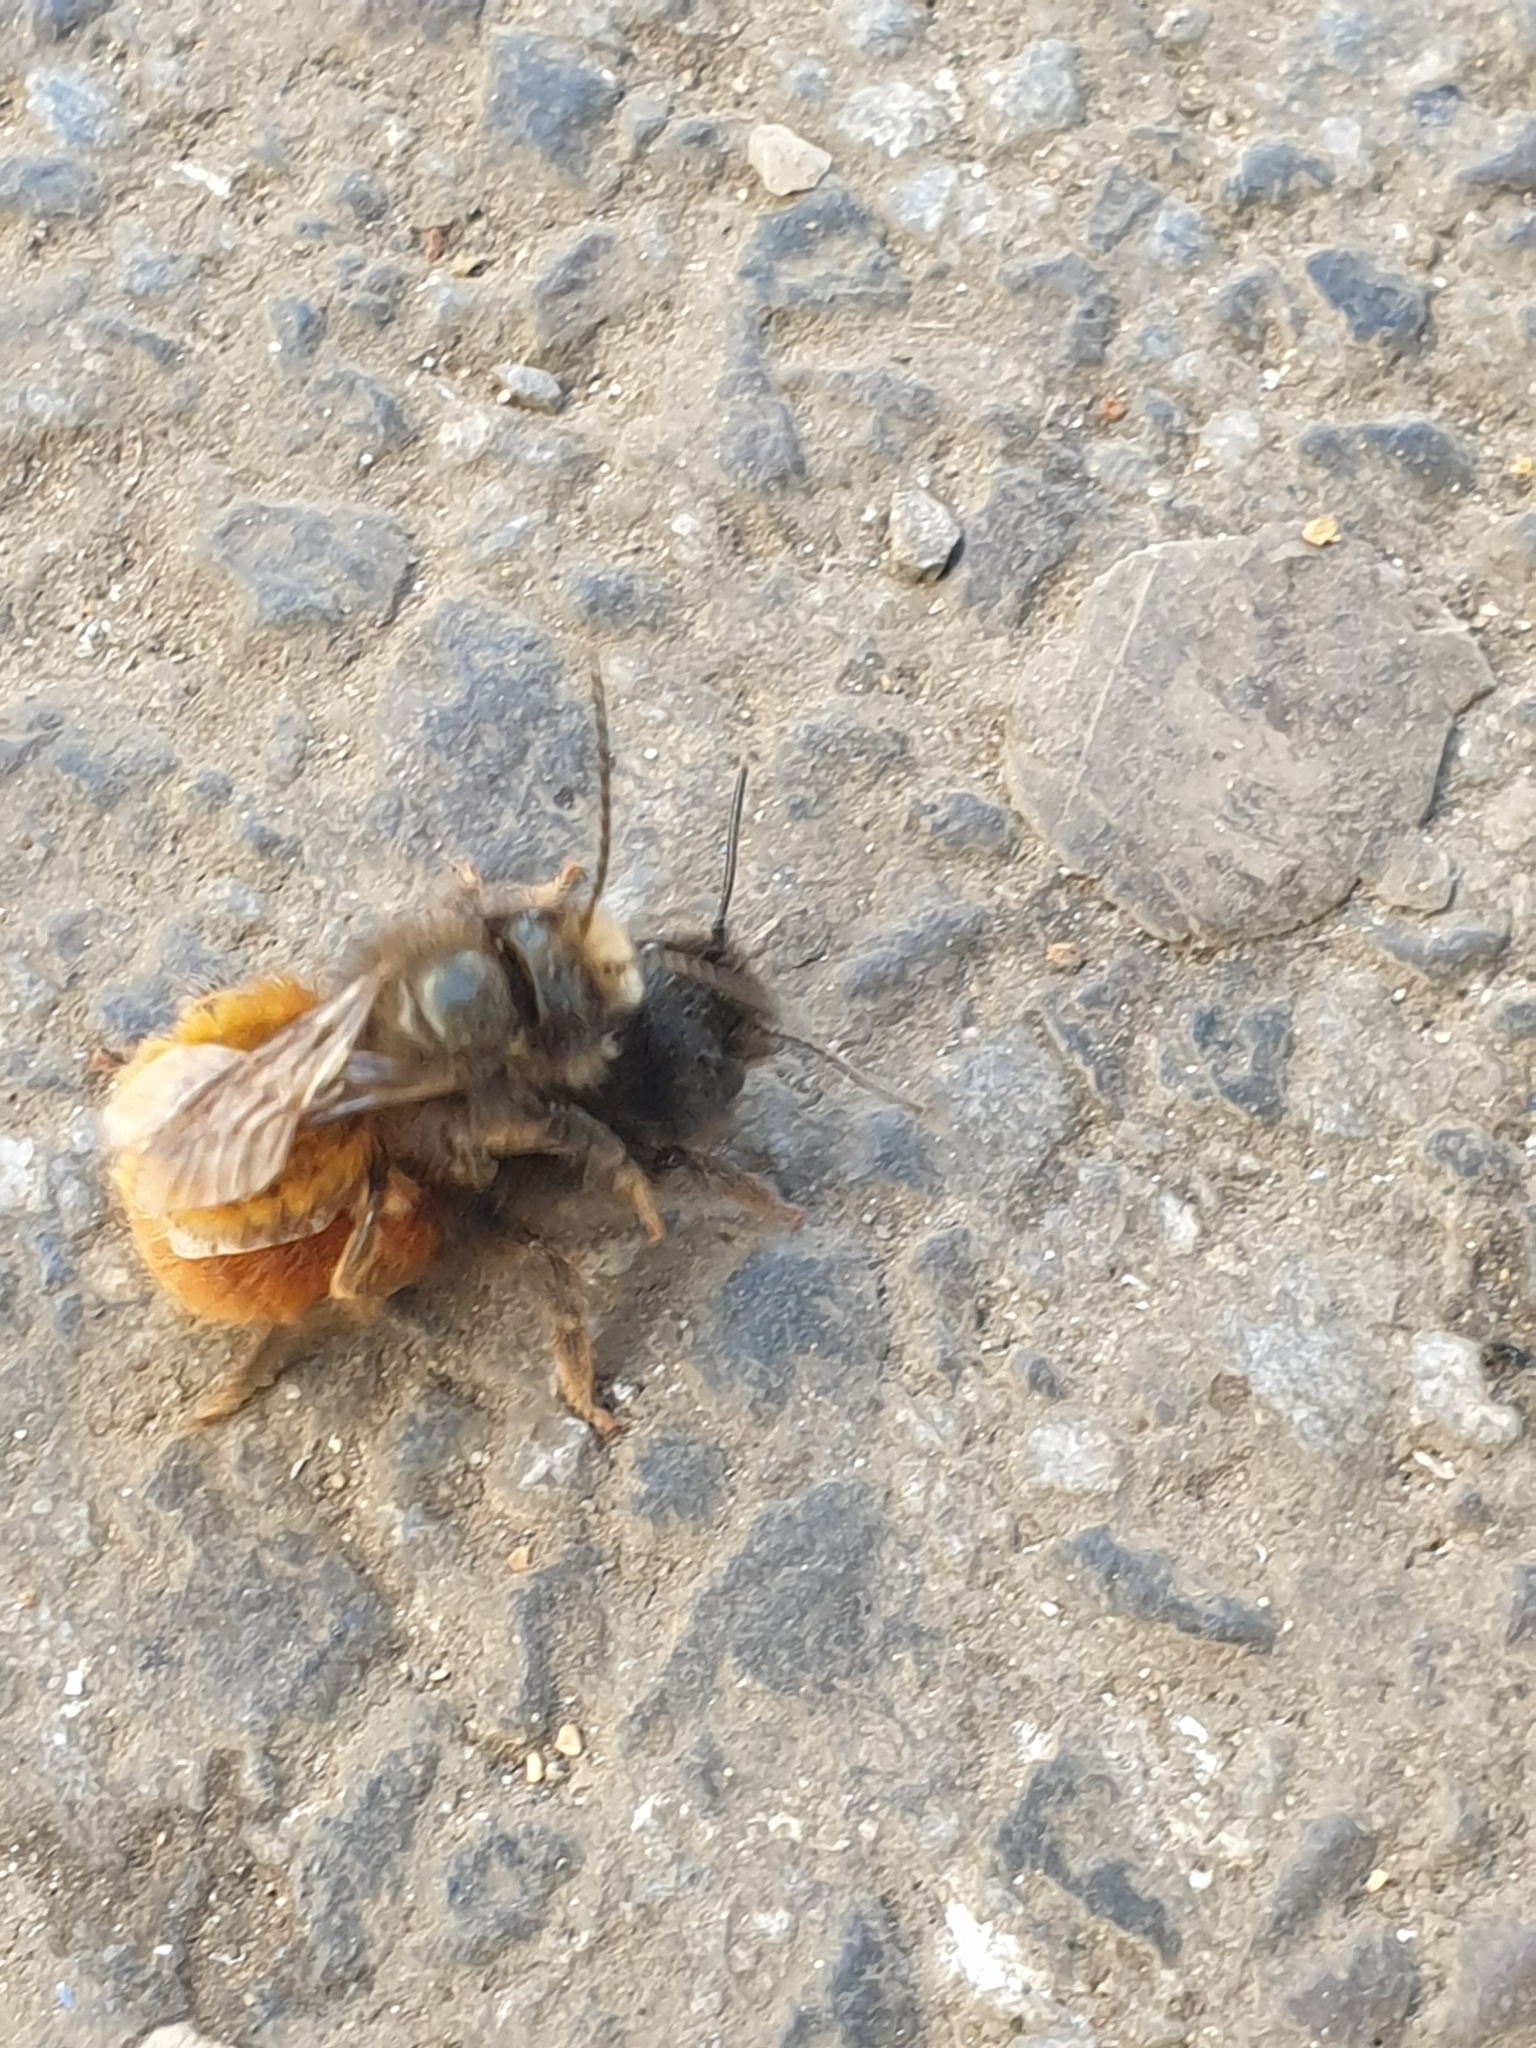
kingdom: Animalia
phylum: Arthropoda
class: Insecta
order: Hymenoptera
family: Megachilidae
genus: Osmia
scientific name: Osmia cornuta
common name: Mason bee
